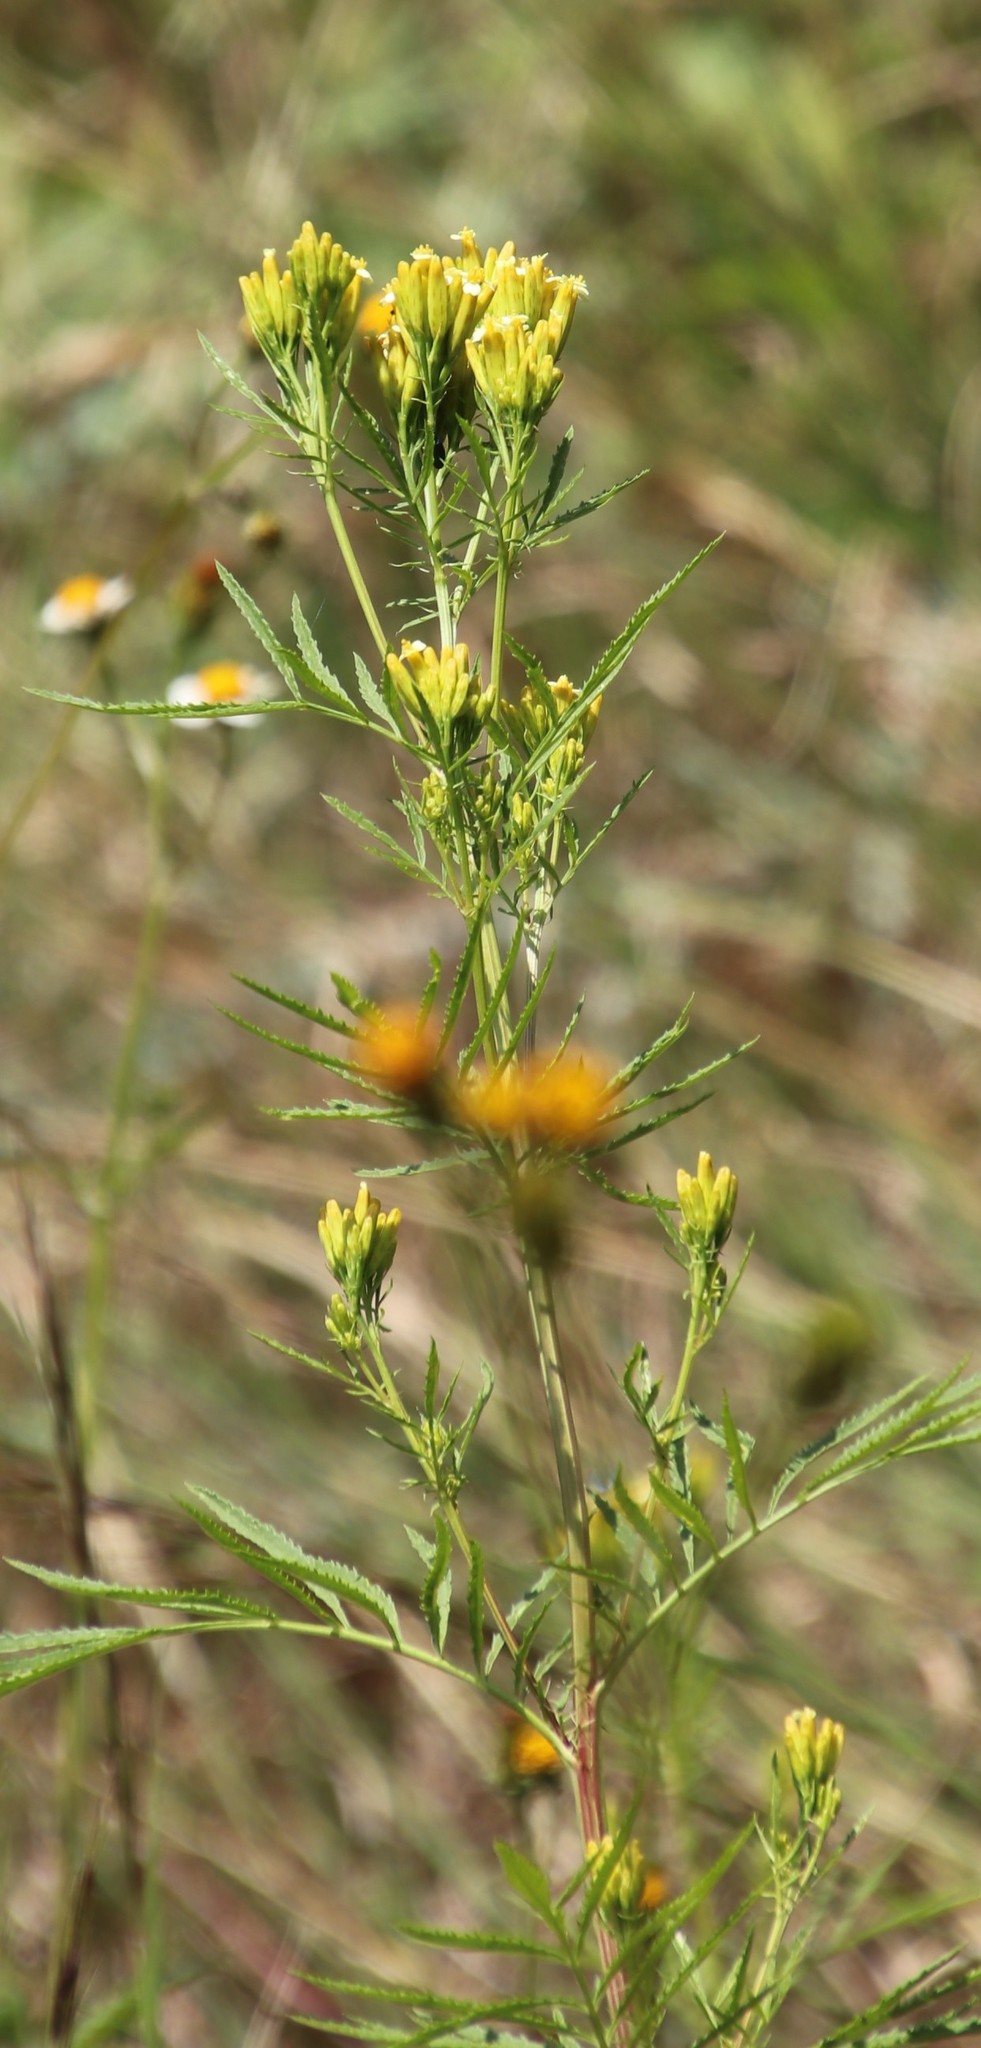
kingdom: Plantae
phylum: Tracheophyta
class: Magnoliopsida
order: Asterales
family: Asteraceae
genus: Bidens
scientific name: Bidens pilosa
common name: Black-jack
